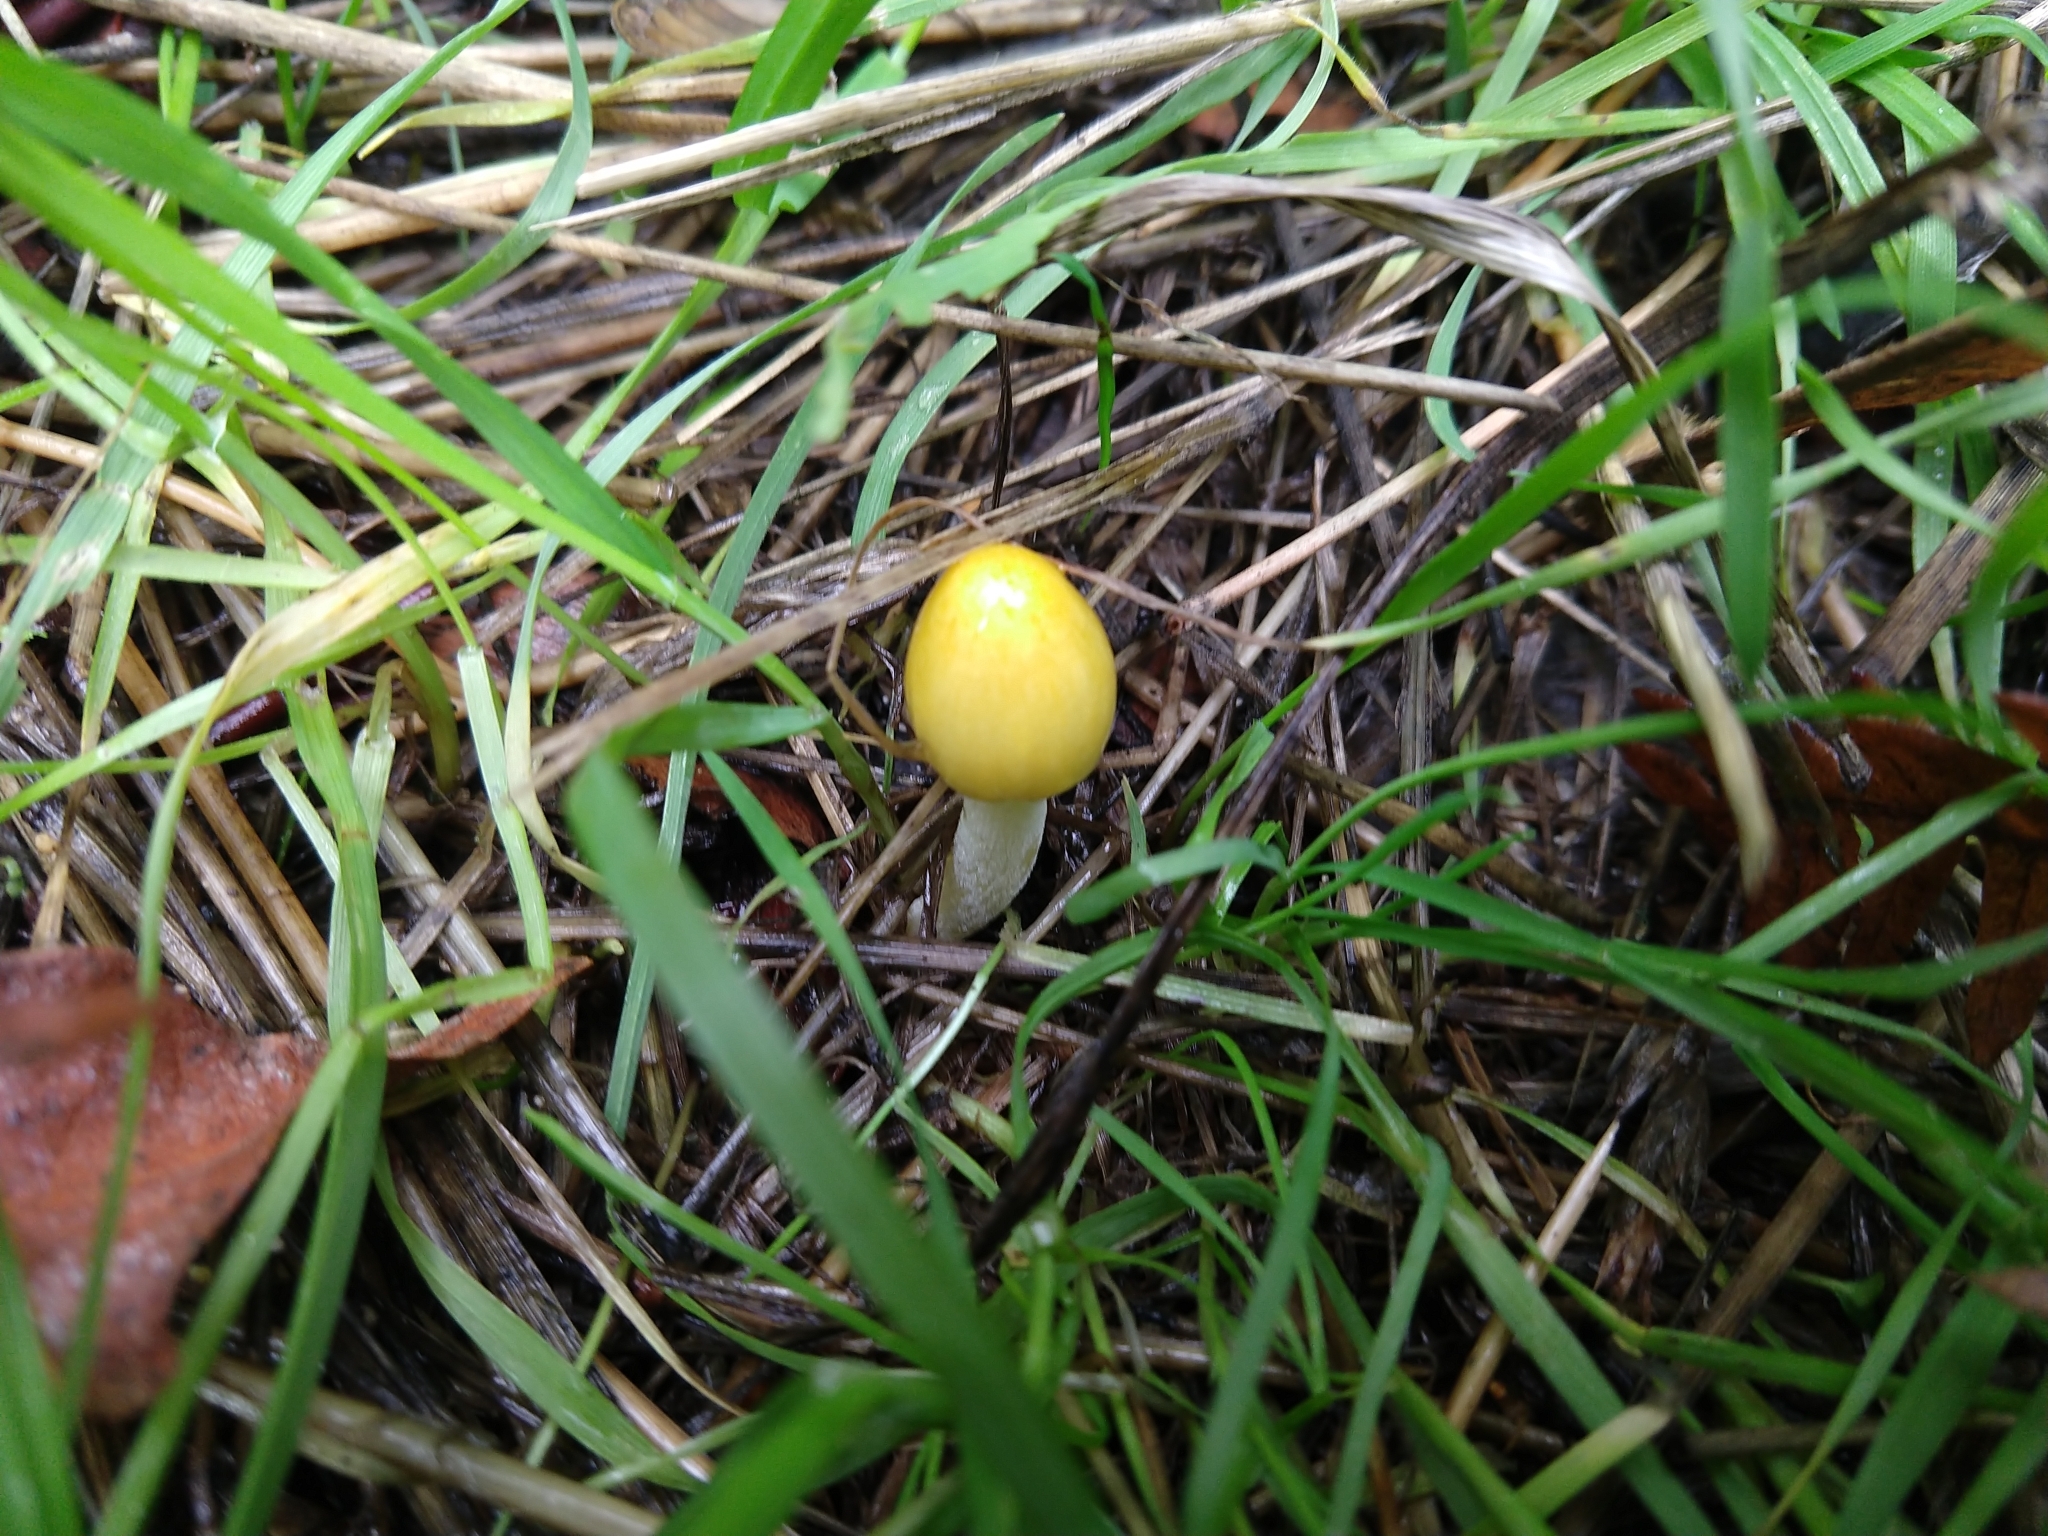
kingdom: Fungi
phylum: Basidiomycota
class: Agaricomycetes
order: Agaricales
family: Bolbitiaceae
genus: Bolbitius
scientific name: Bolbitius titubans
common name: Yellow fieldcap
